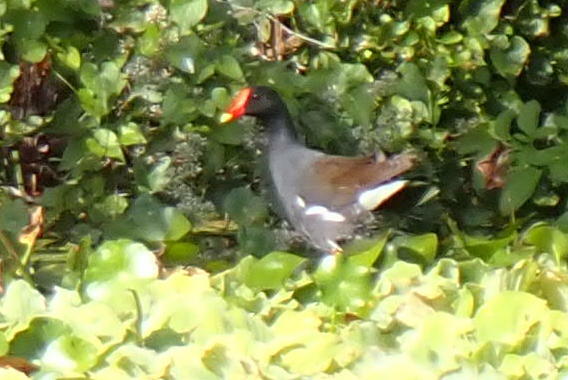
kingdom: Animalia
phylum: Chordata
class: Aves
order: Gruiformes
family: Rallidae
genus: Gallinula
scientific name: Gallinula chloropus
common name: Common moorhen
